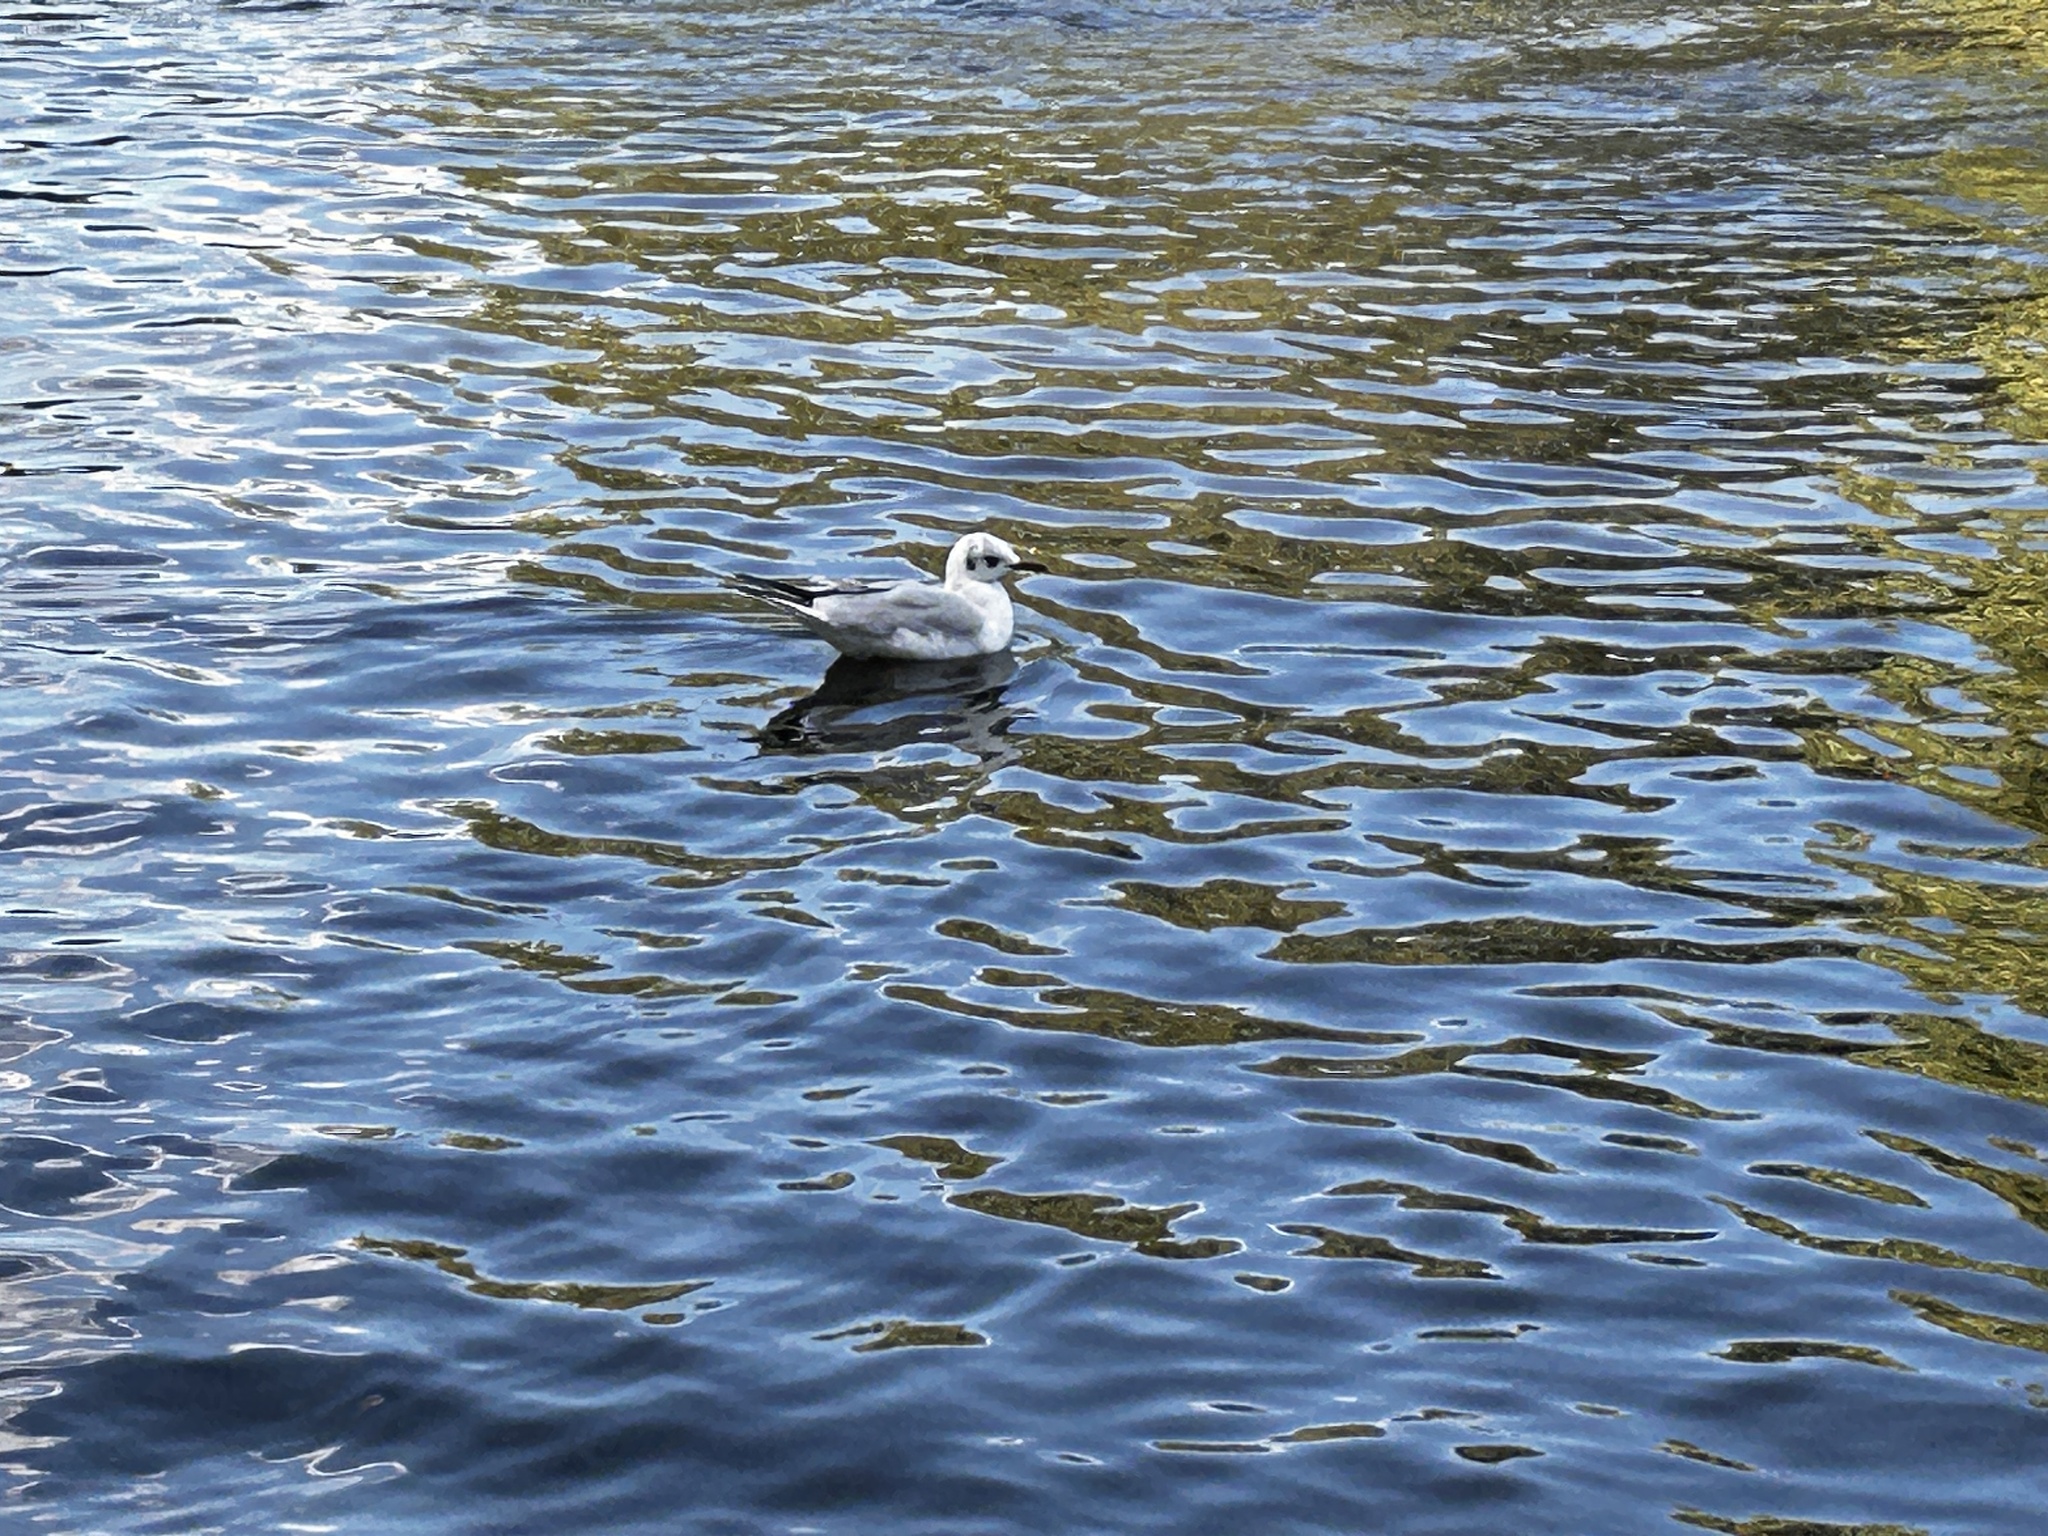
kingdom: Animalia
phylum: Chordata
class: Aves
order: Charadriiformes
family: Laridae
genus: Chroicocephalus
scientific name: Chroicocephalus ridibundus
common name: Black-headed gull
